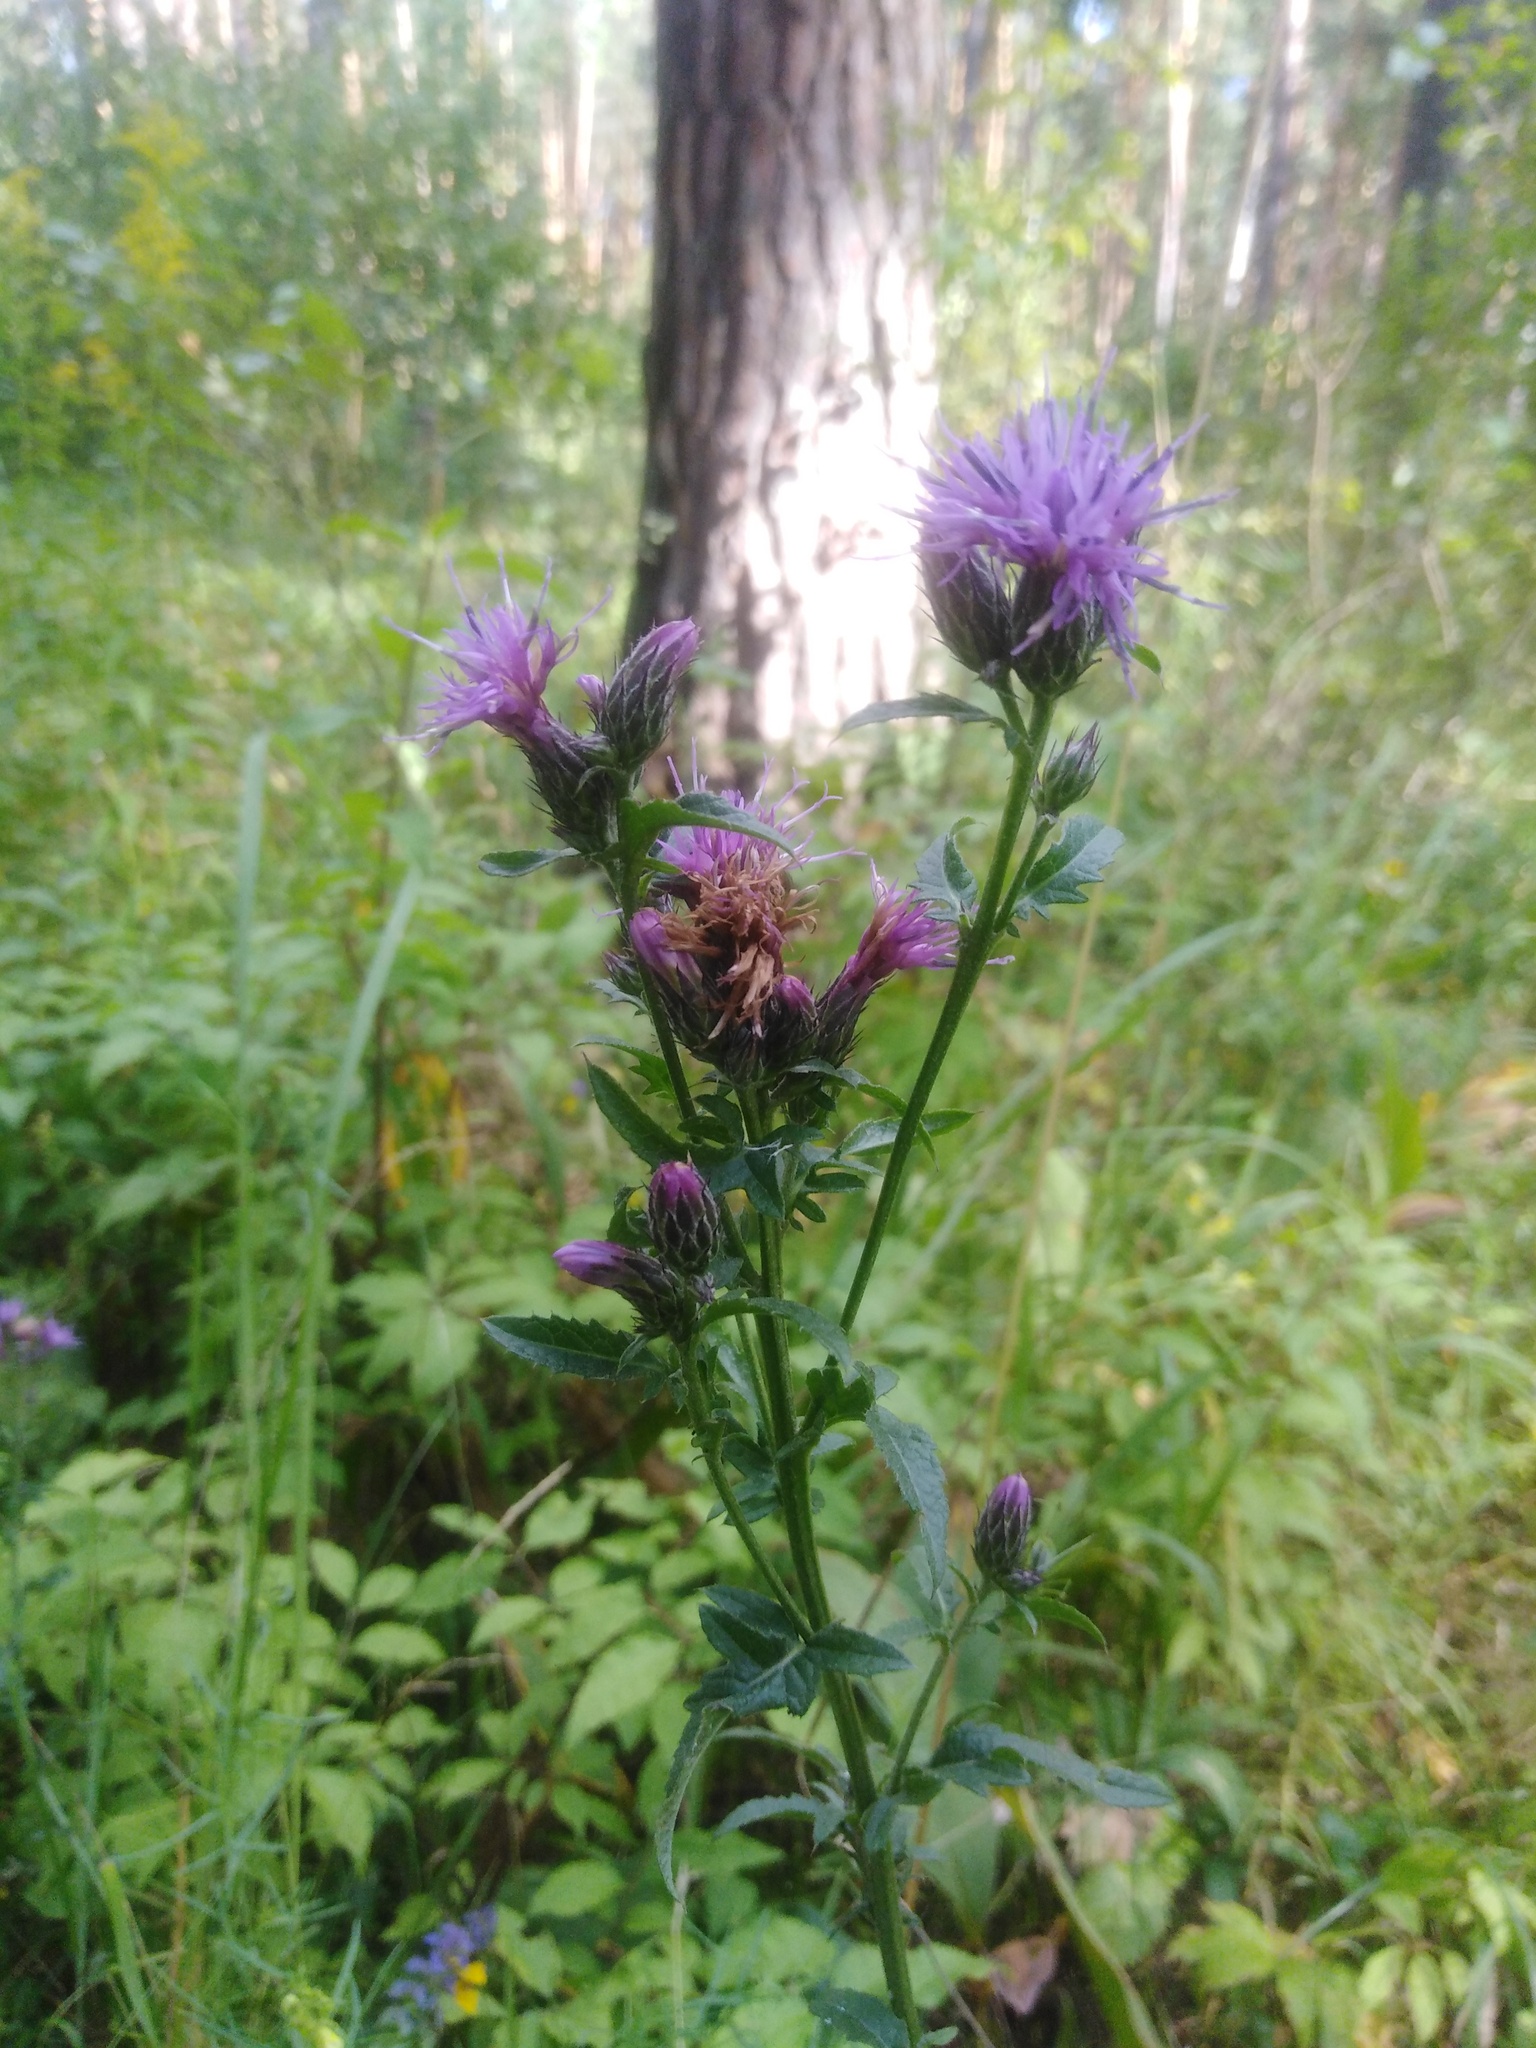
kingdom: Plantae
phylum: Tracheophyta
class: Magnoliopsida
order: Asterales
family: Asteraceae
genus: Serratula
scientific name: Serratula tinctoria
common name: Saw-wort
